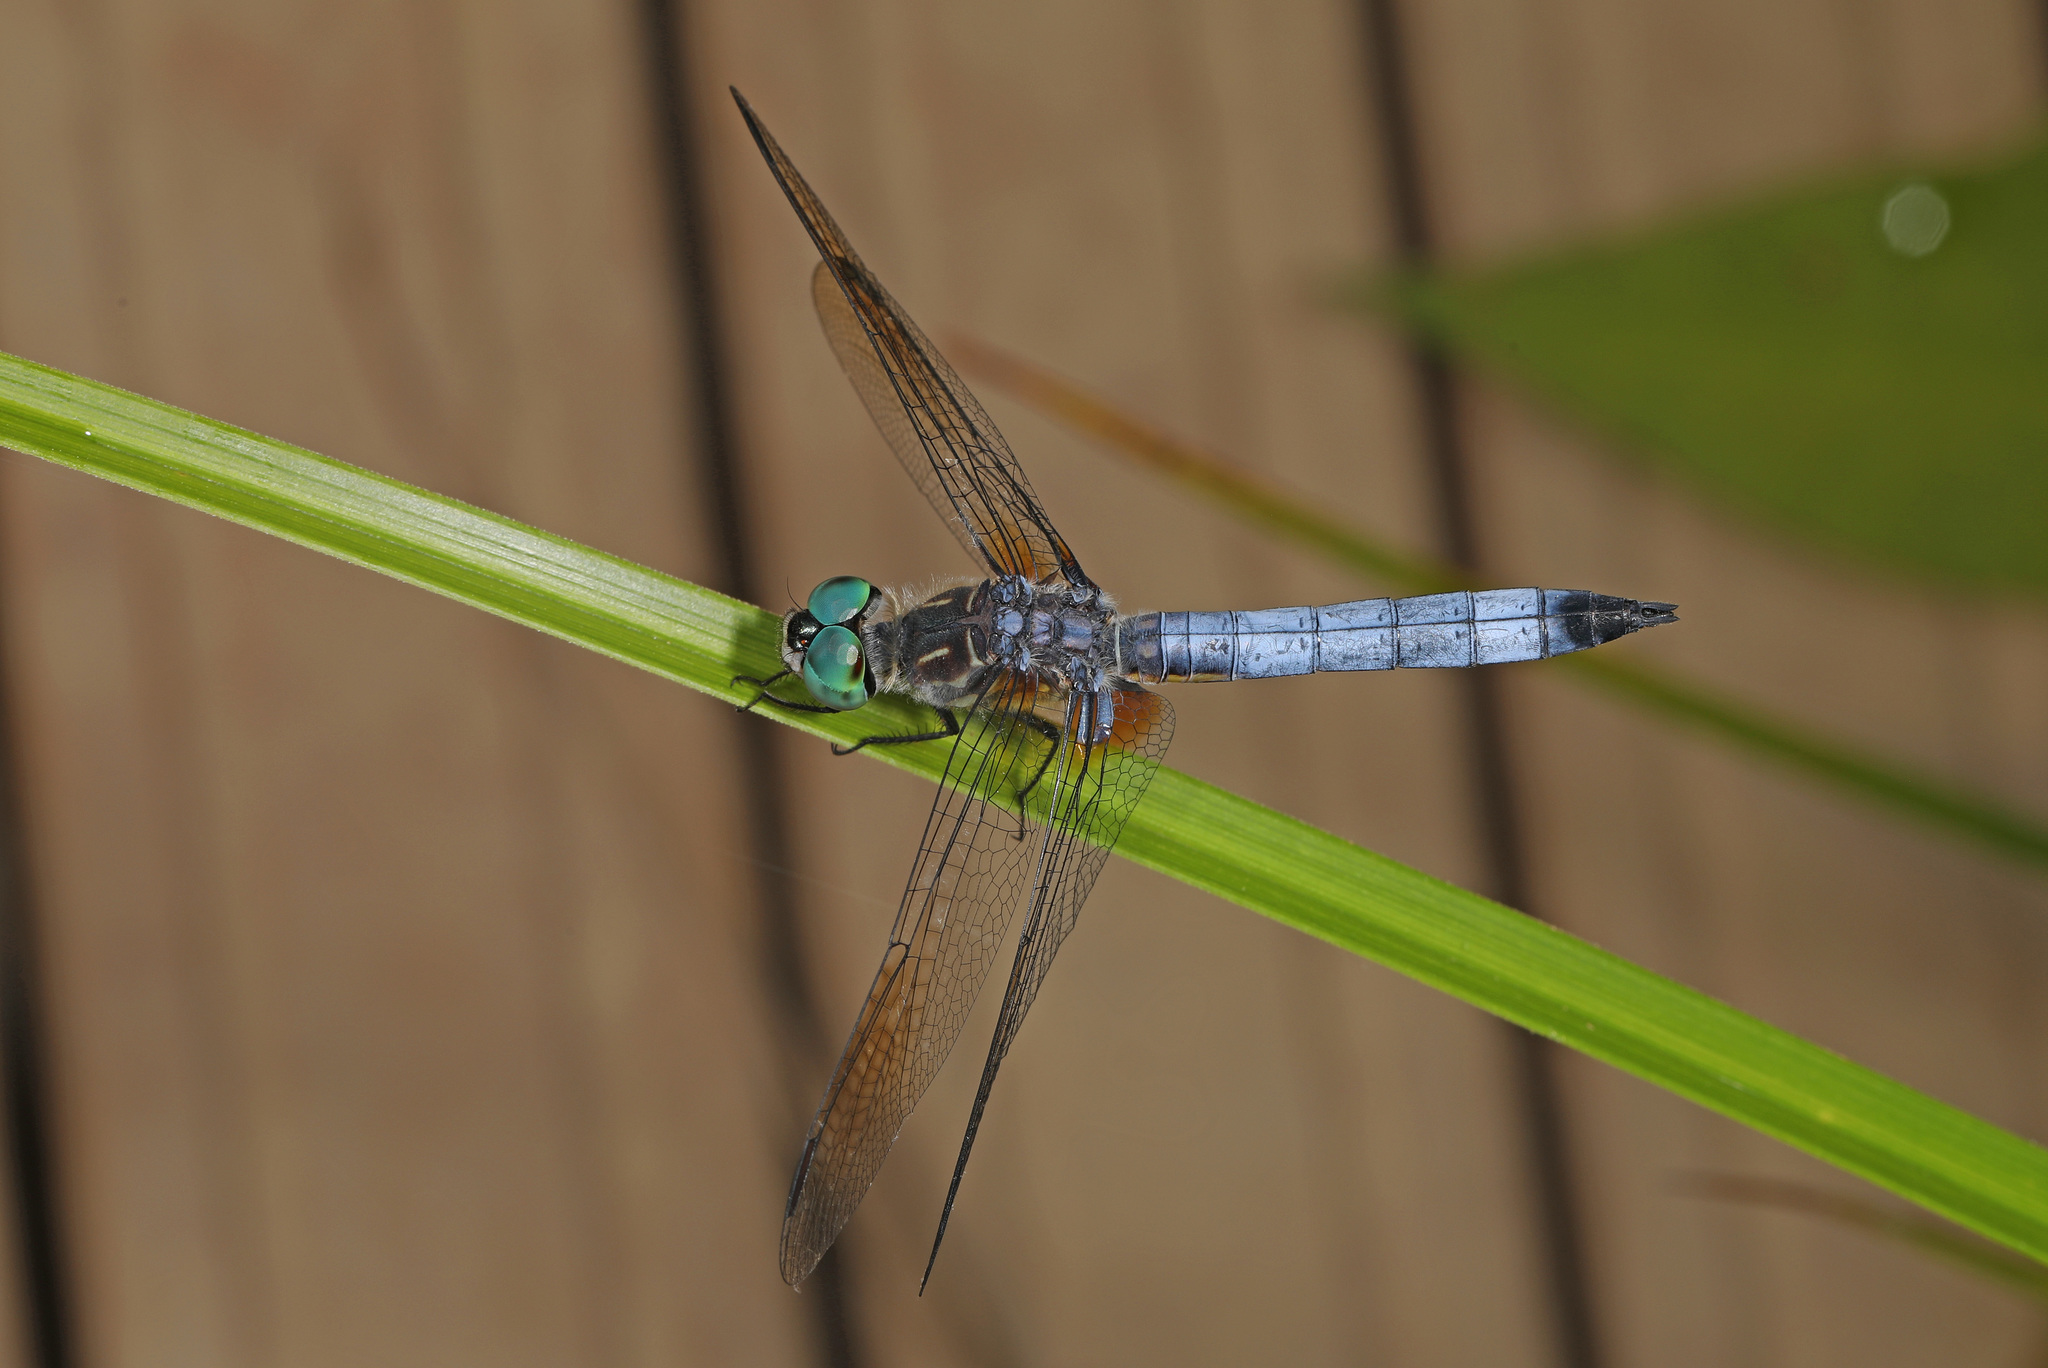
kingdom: Animalia
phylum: Arthropoda
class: Insecta
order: Odonata
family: Libellulidae
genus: Pachydiplax
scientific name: Pachydiplax longipennis
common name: Blue dasher
